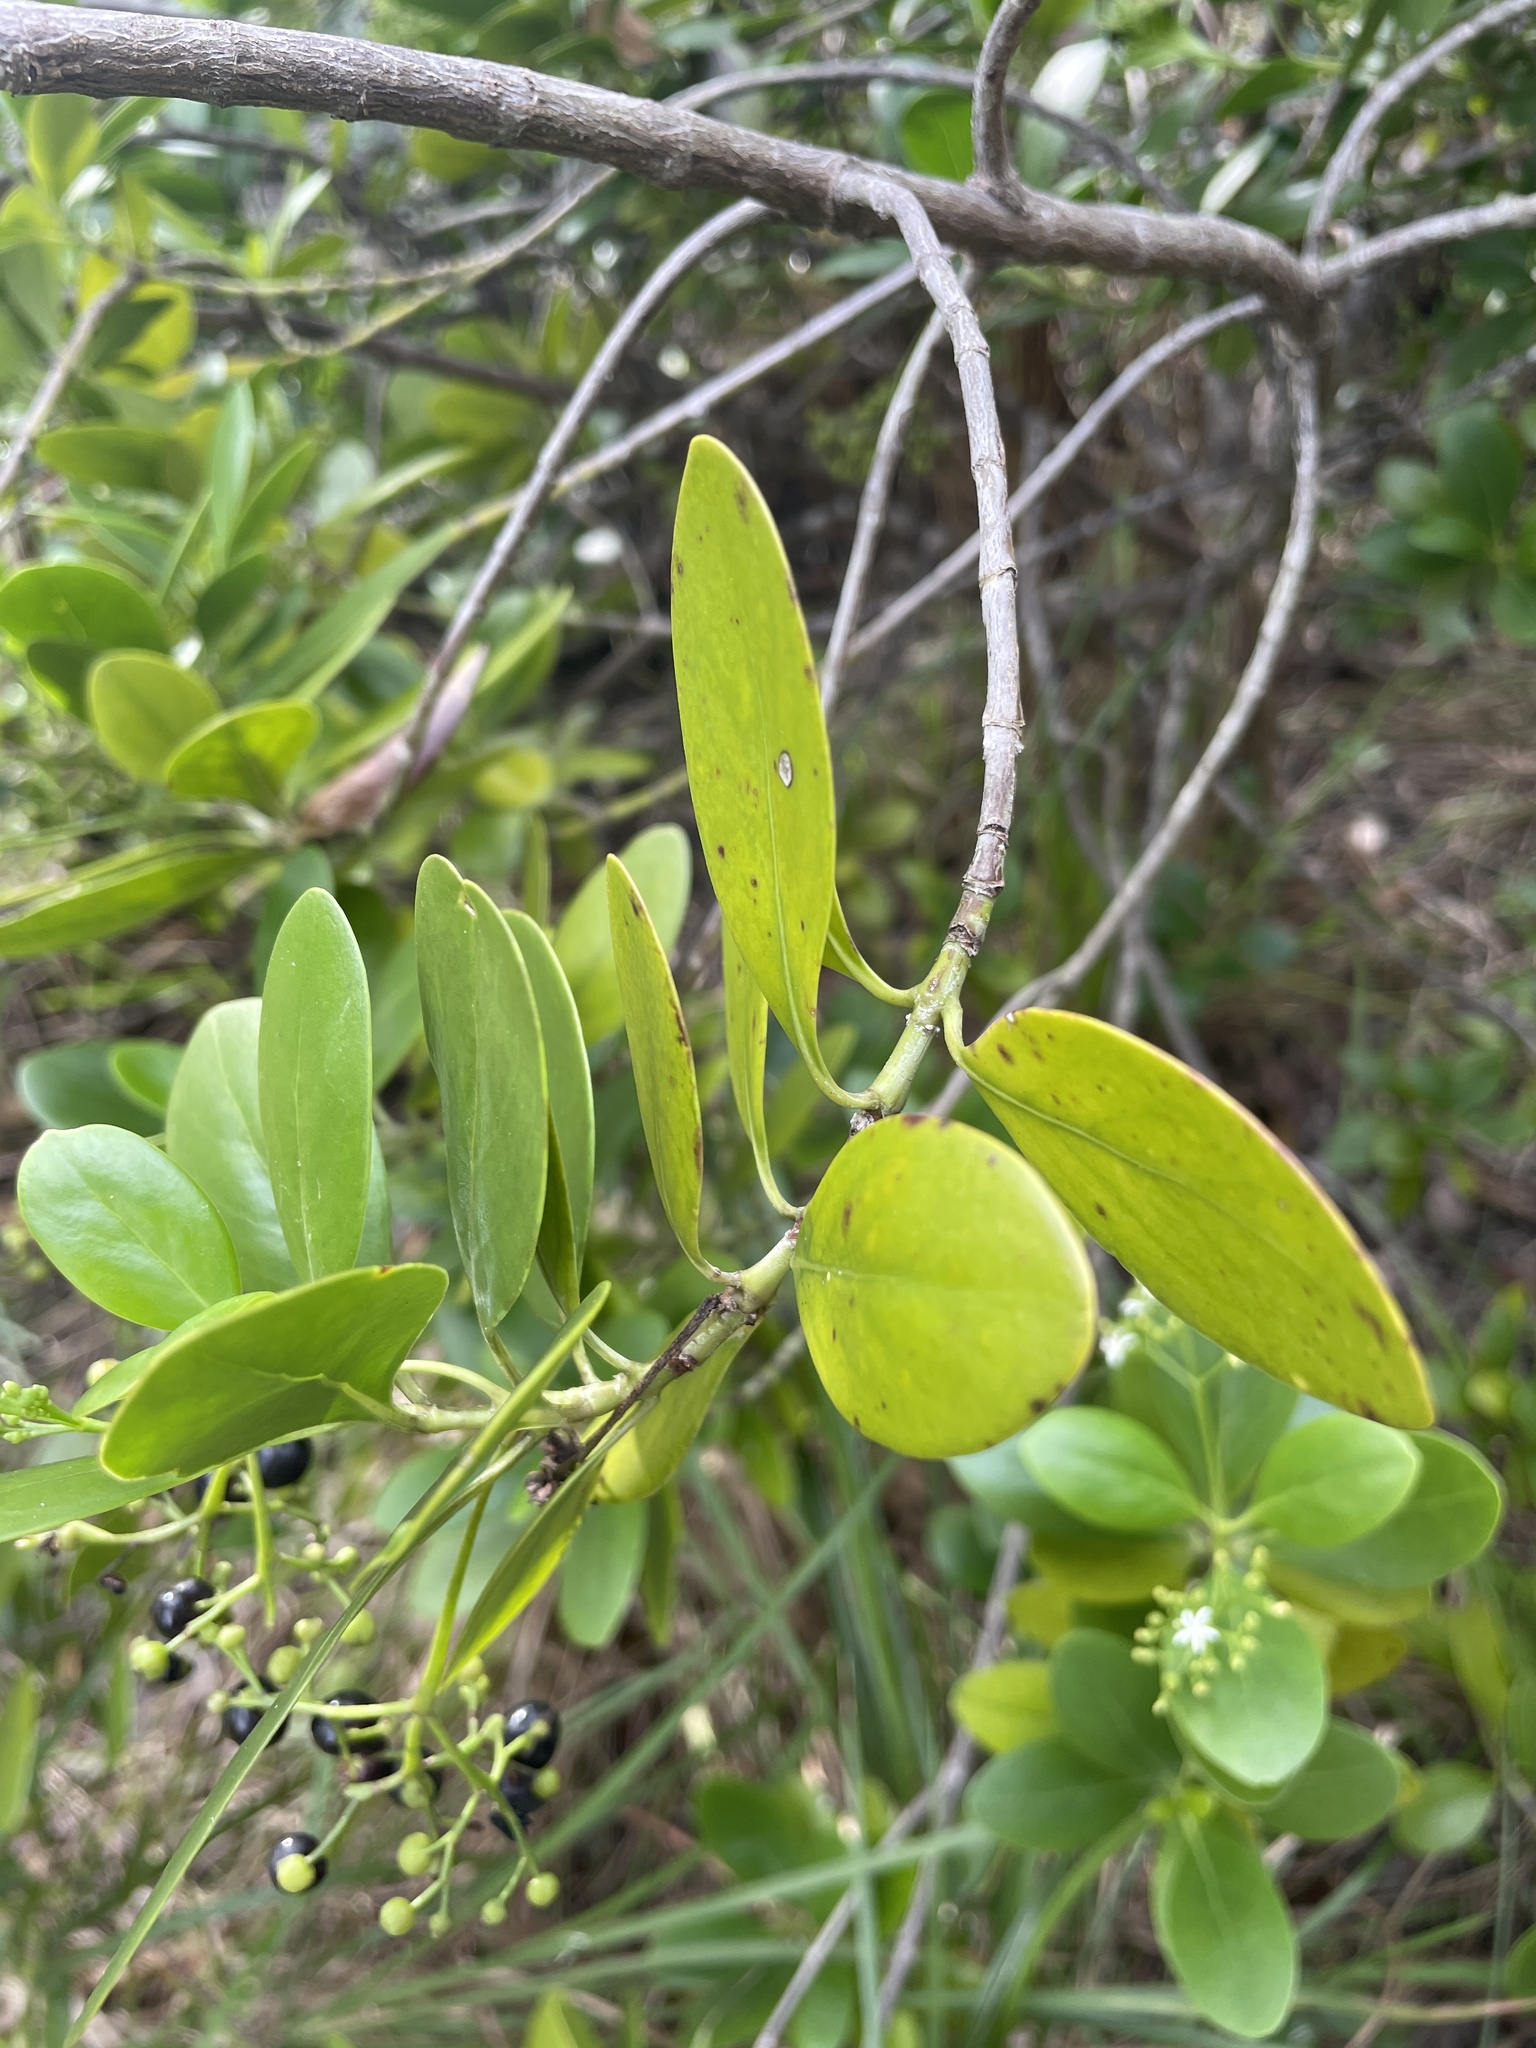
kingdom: Plantae
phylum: Tracheophyta
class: Magnoliopsida
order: Gentianales
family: Rubiaceae
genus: Erithalis
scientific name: Erithalis fruticosa
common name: Candlewood
